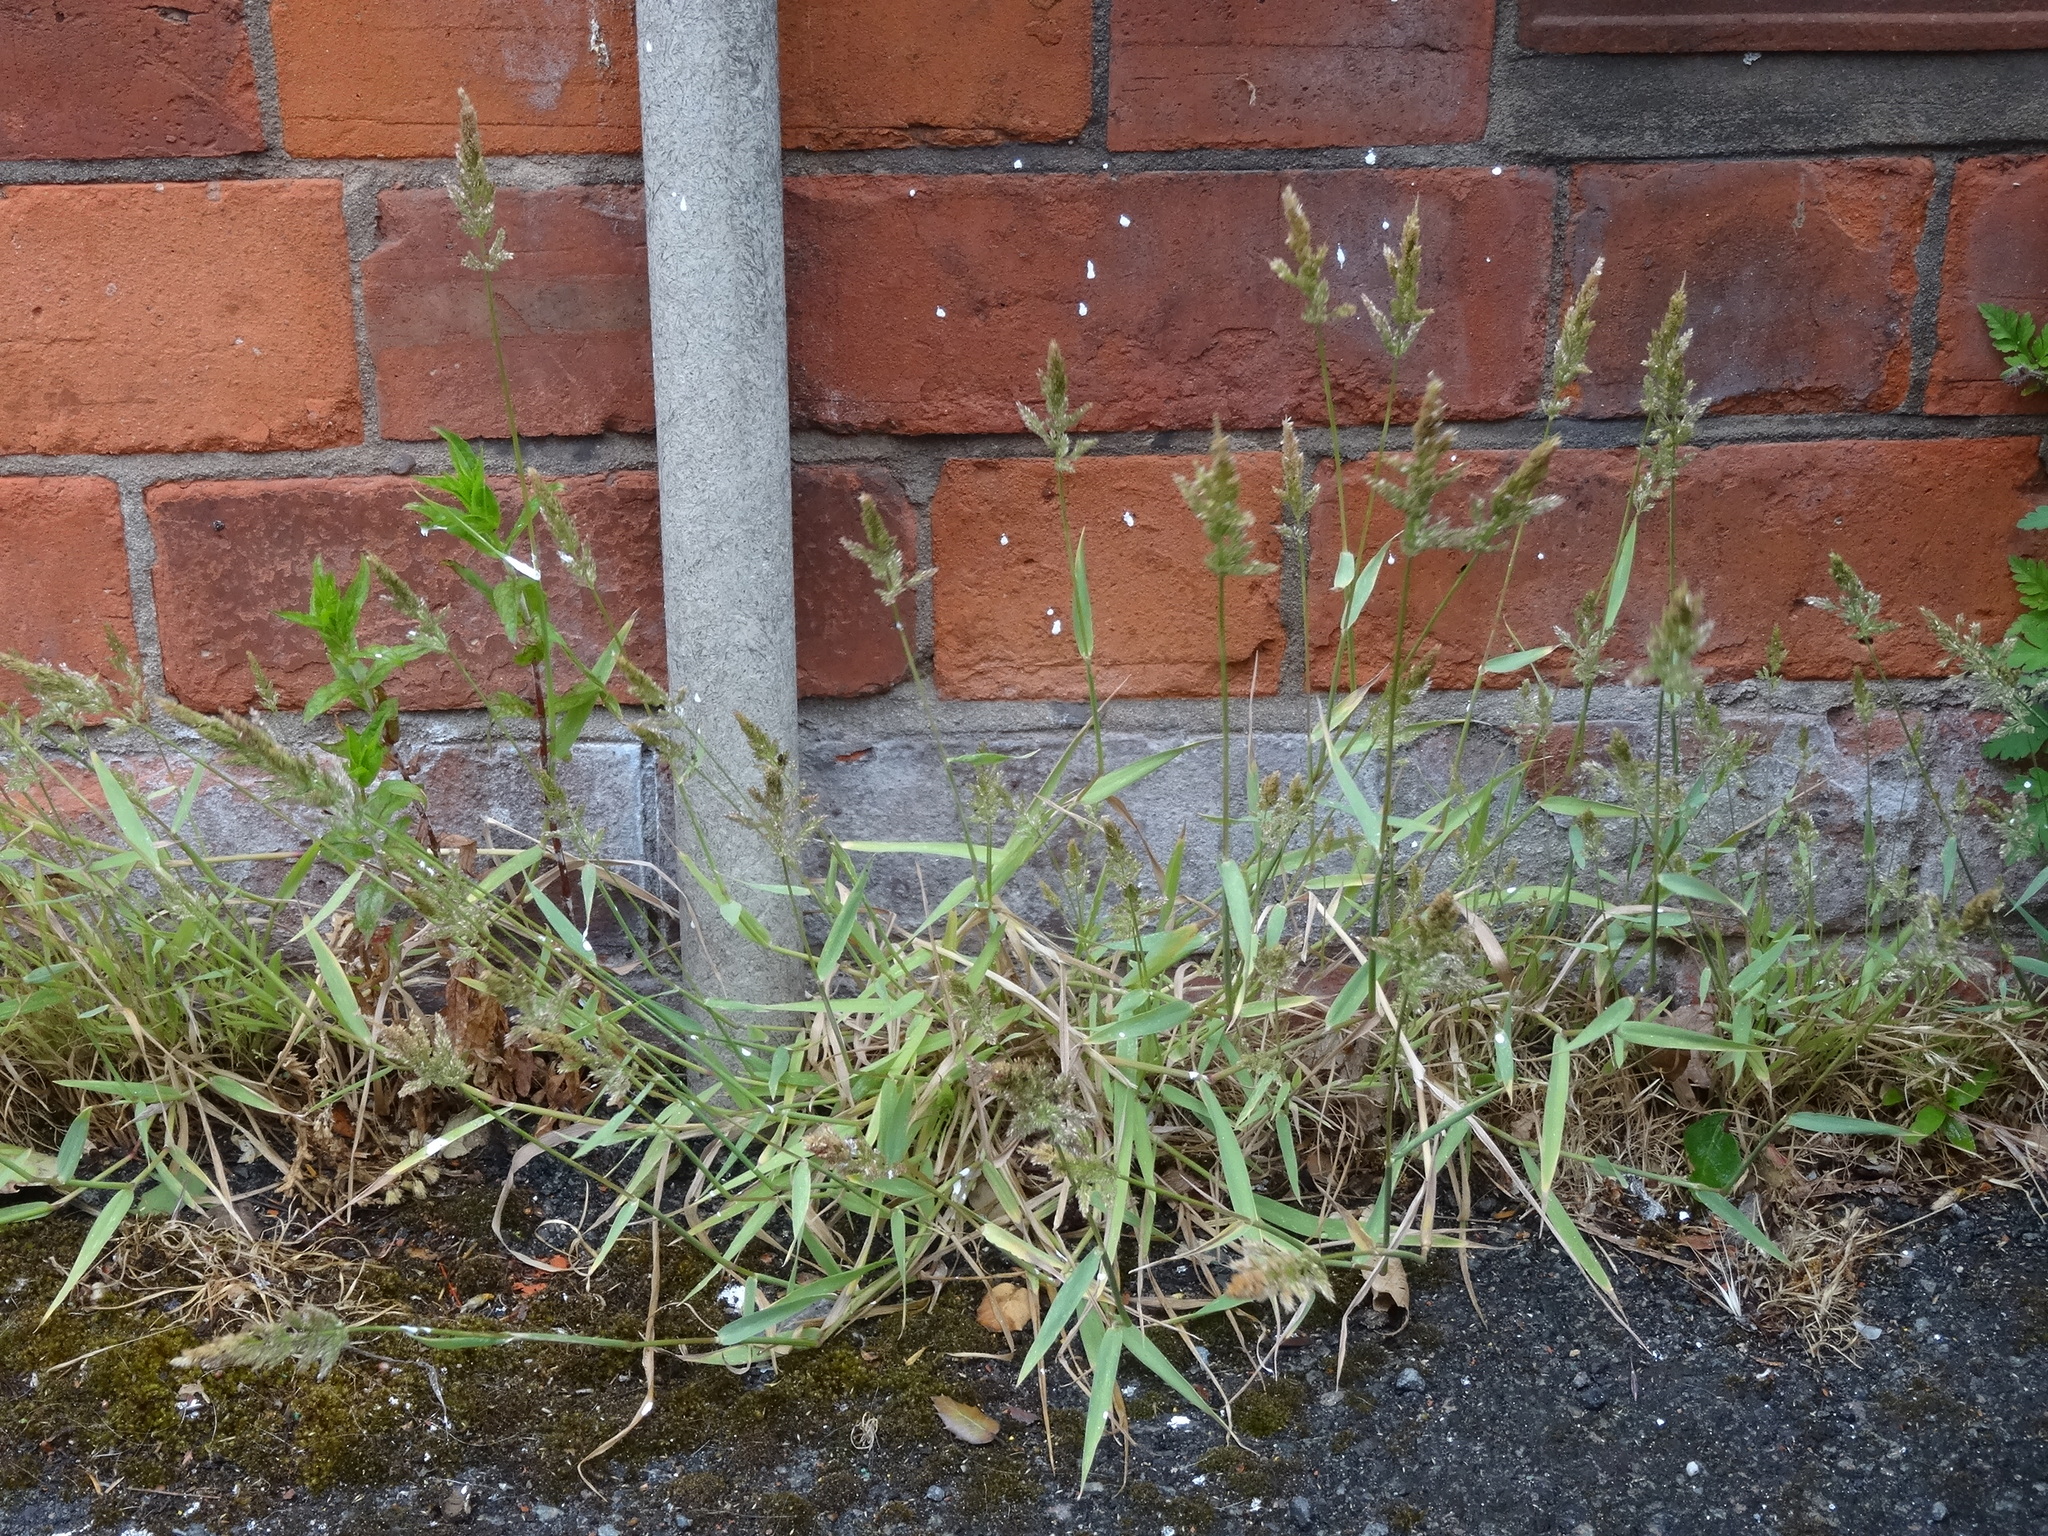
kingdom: Plantae
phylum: Tracheophyta
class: Liliopsida
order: Poales
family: Poaceae
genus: Polypogon
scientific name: Polypogon viridis
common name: Water bent
